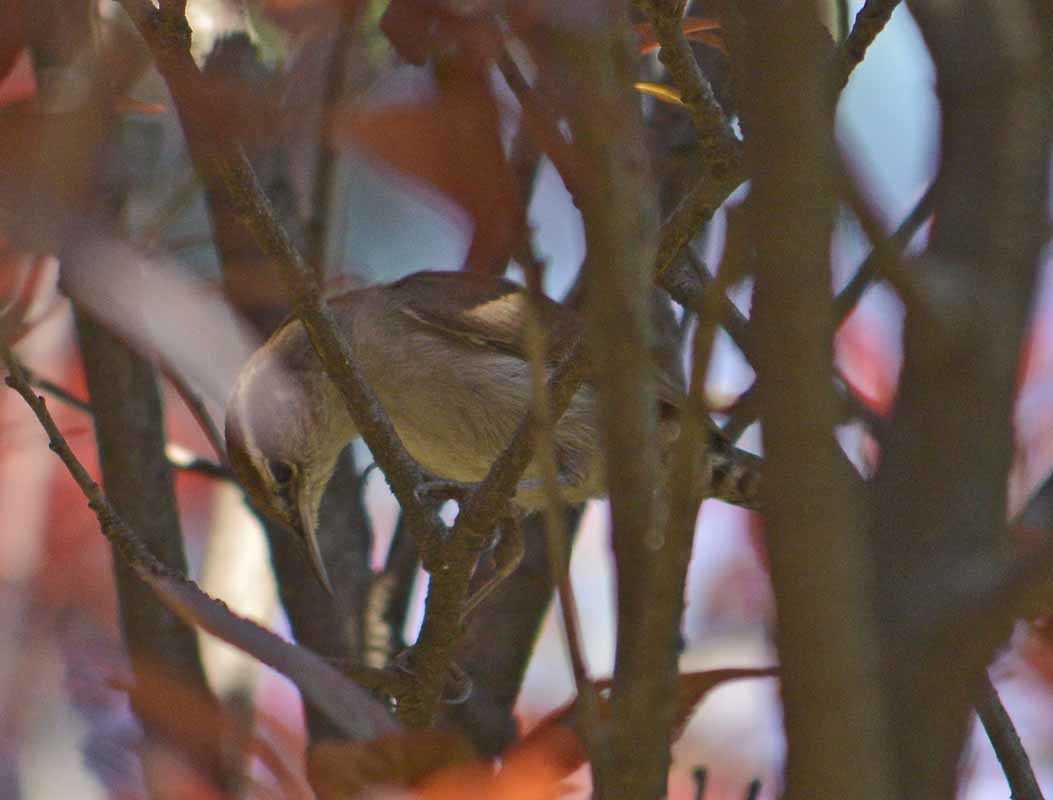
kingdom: Animalia
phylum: Chordata
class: Aves
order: Passeriformes
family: Troglodytidae
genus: Thryomanes
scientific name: Thryomanes bewickii
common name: Bewick's wren
